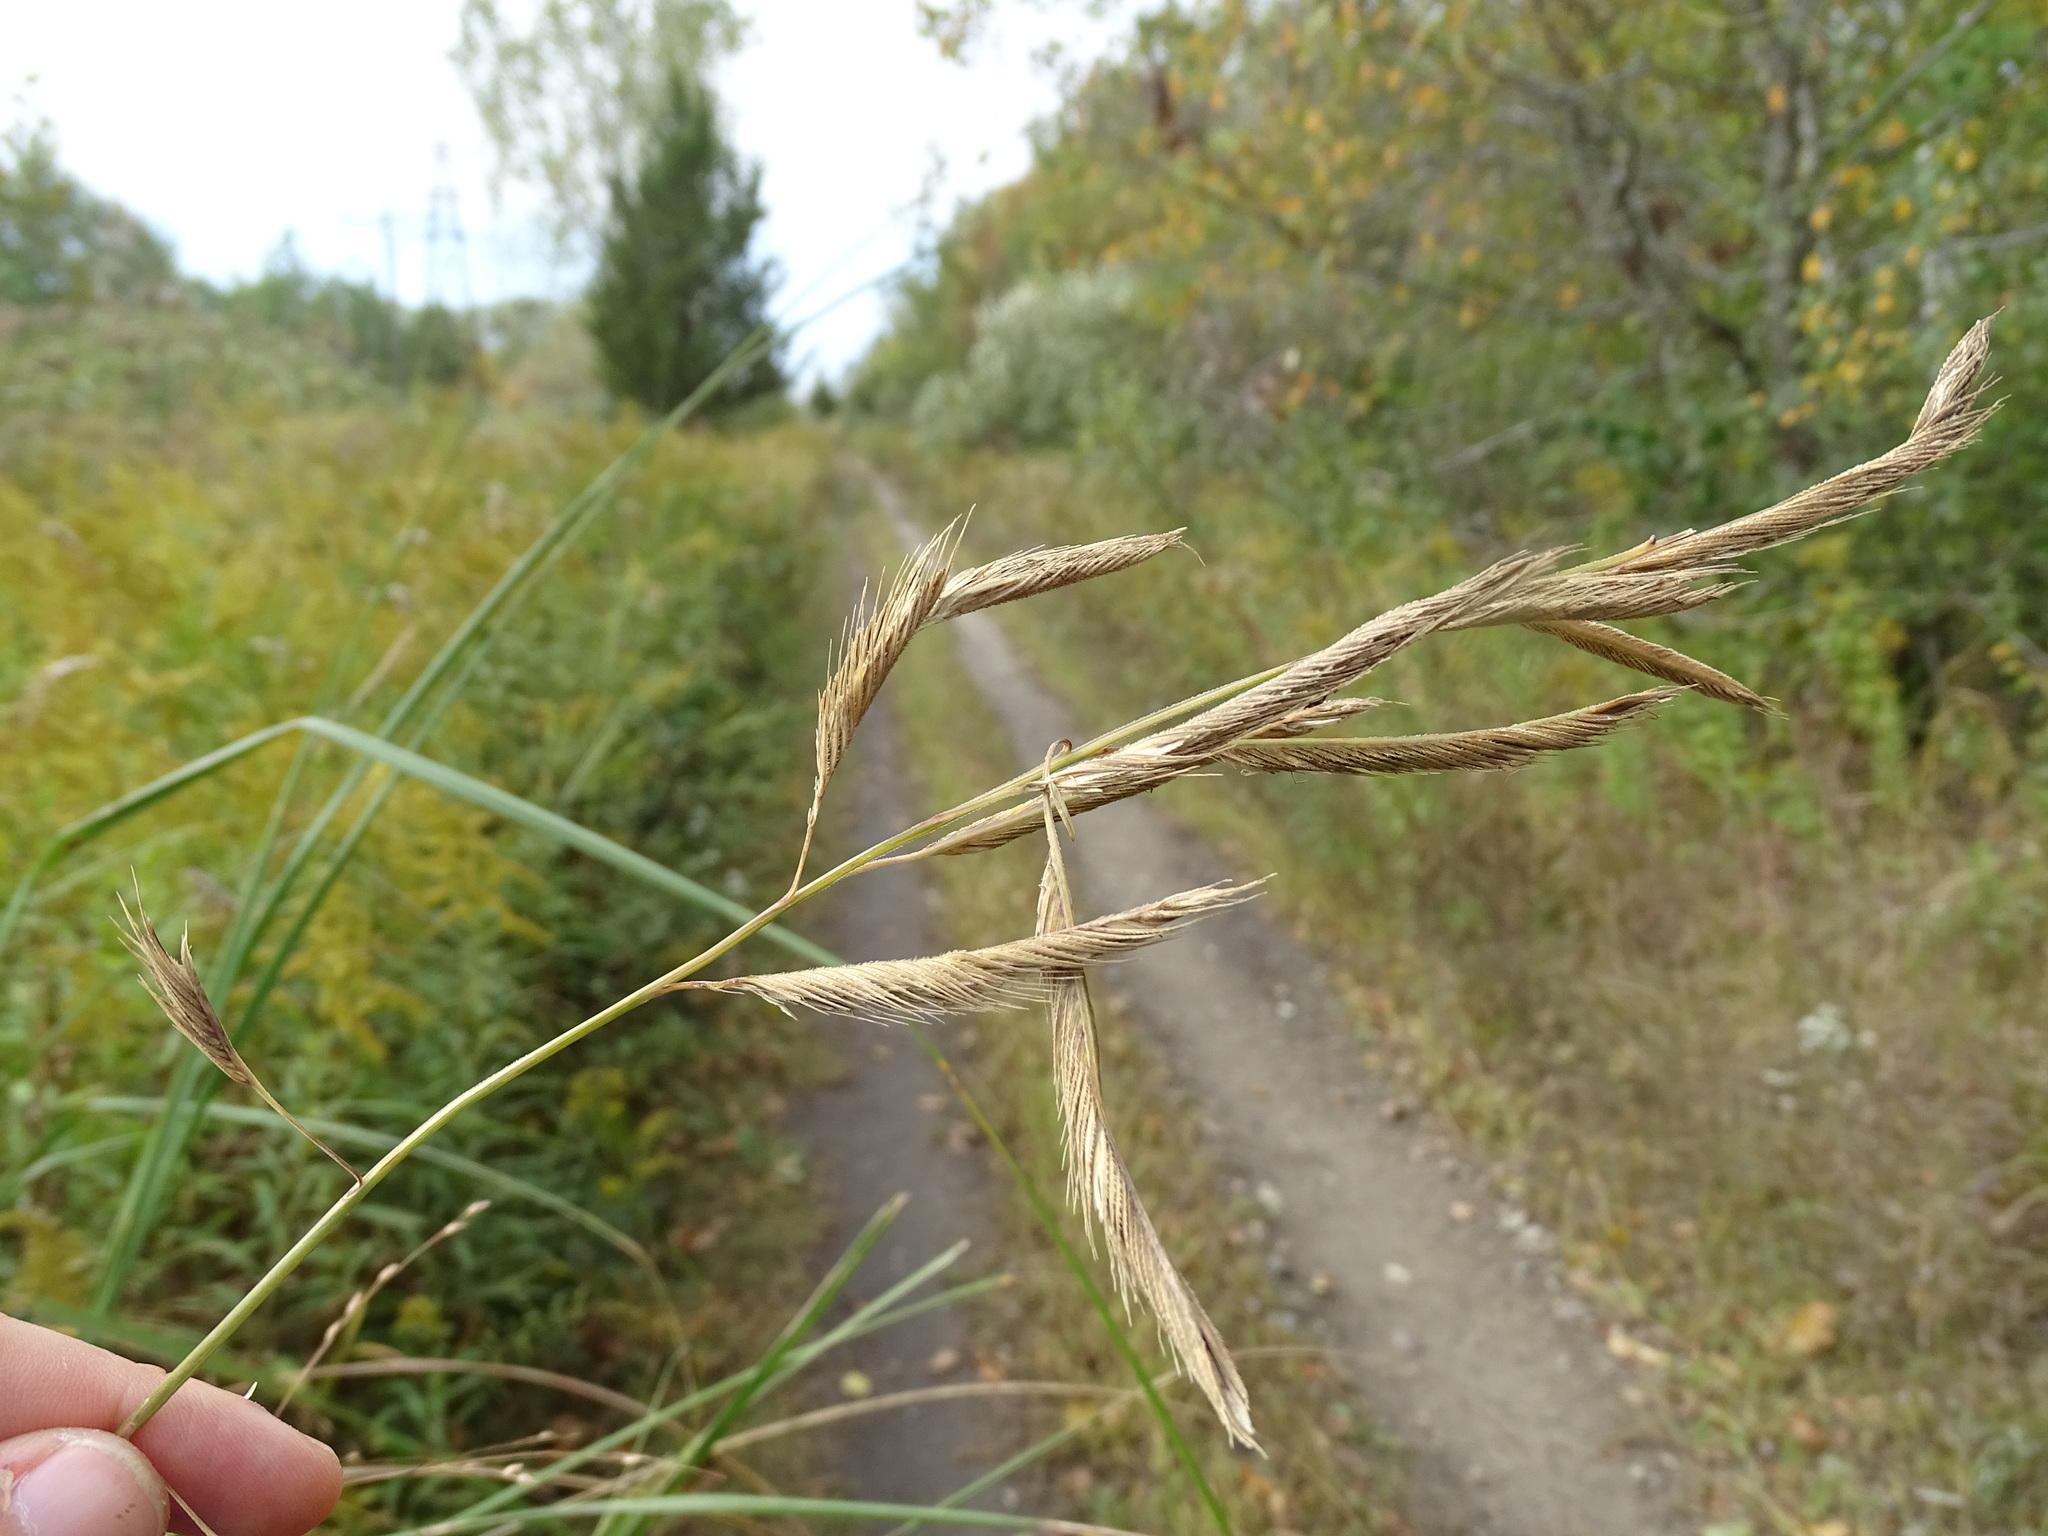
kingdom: Plantae
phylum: Tracheophyta
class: Liliopsida
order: Poales
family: Poaceae
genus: Sporobolus
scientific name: Sporobolus michauxianus
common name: Freshwater cordgrass
